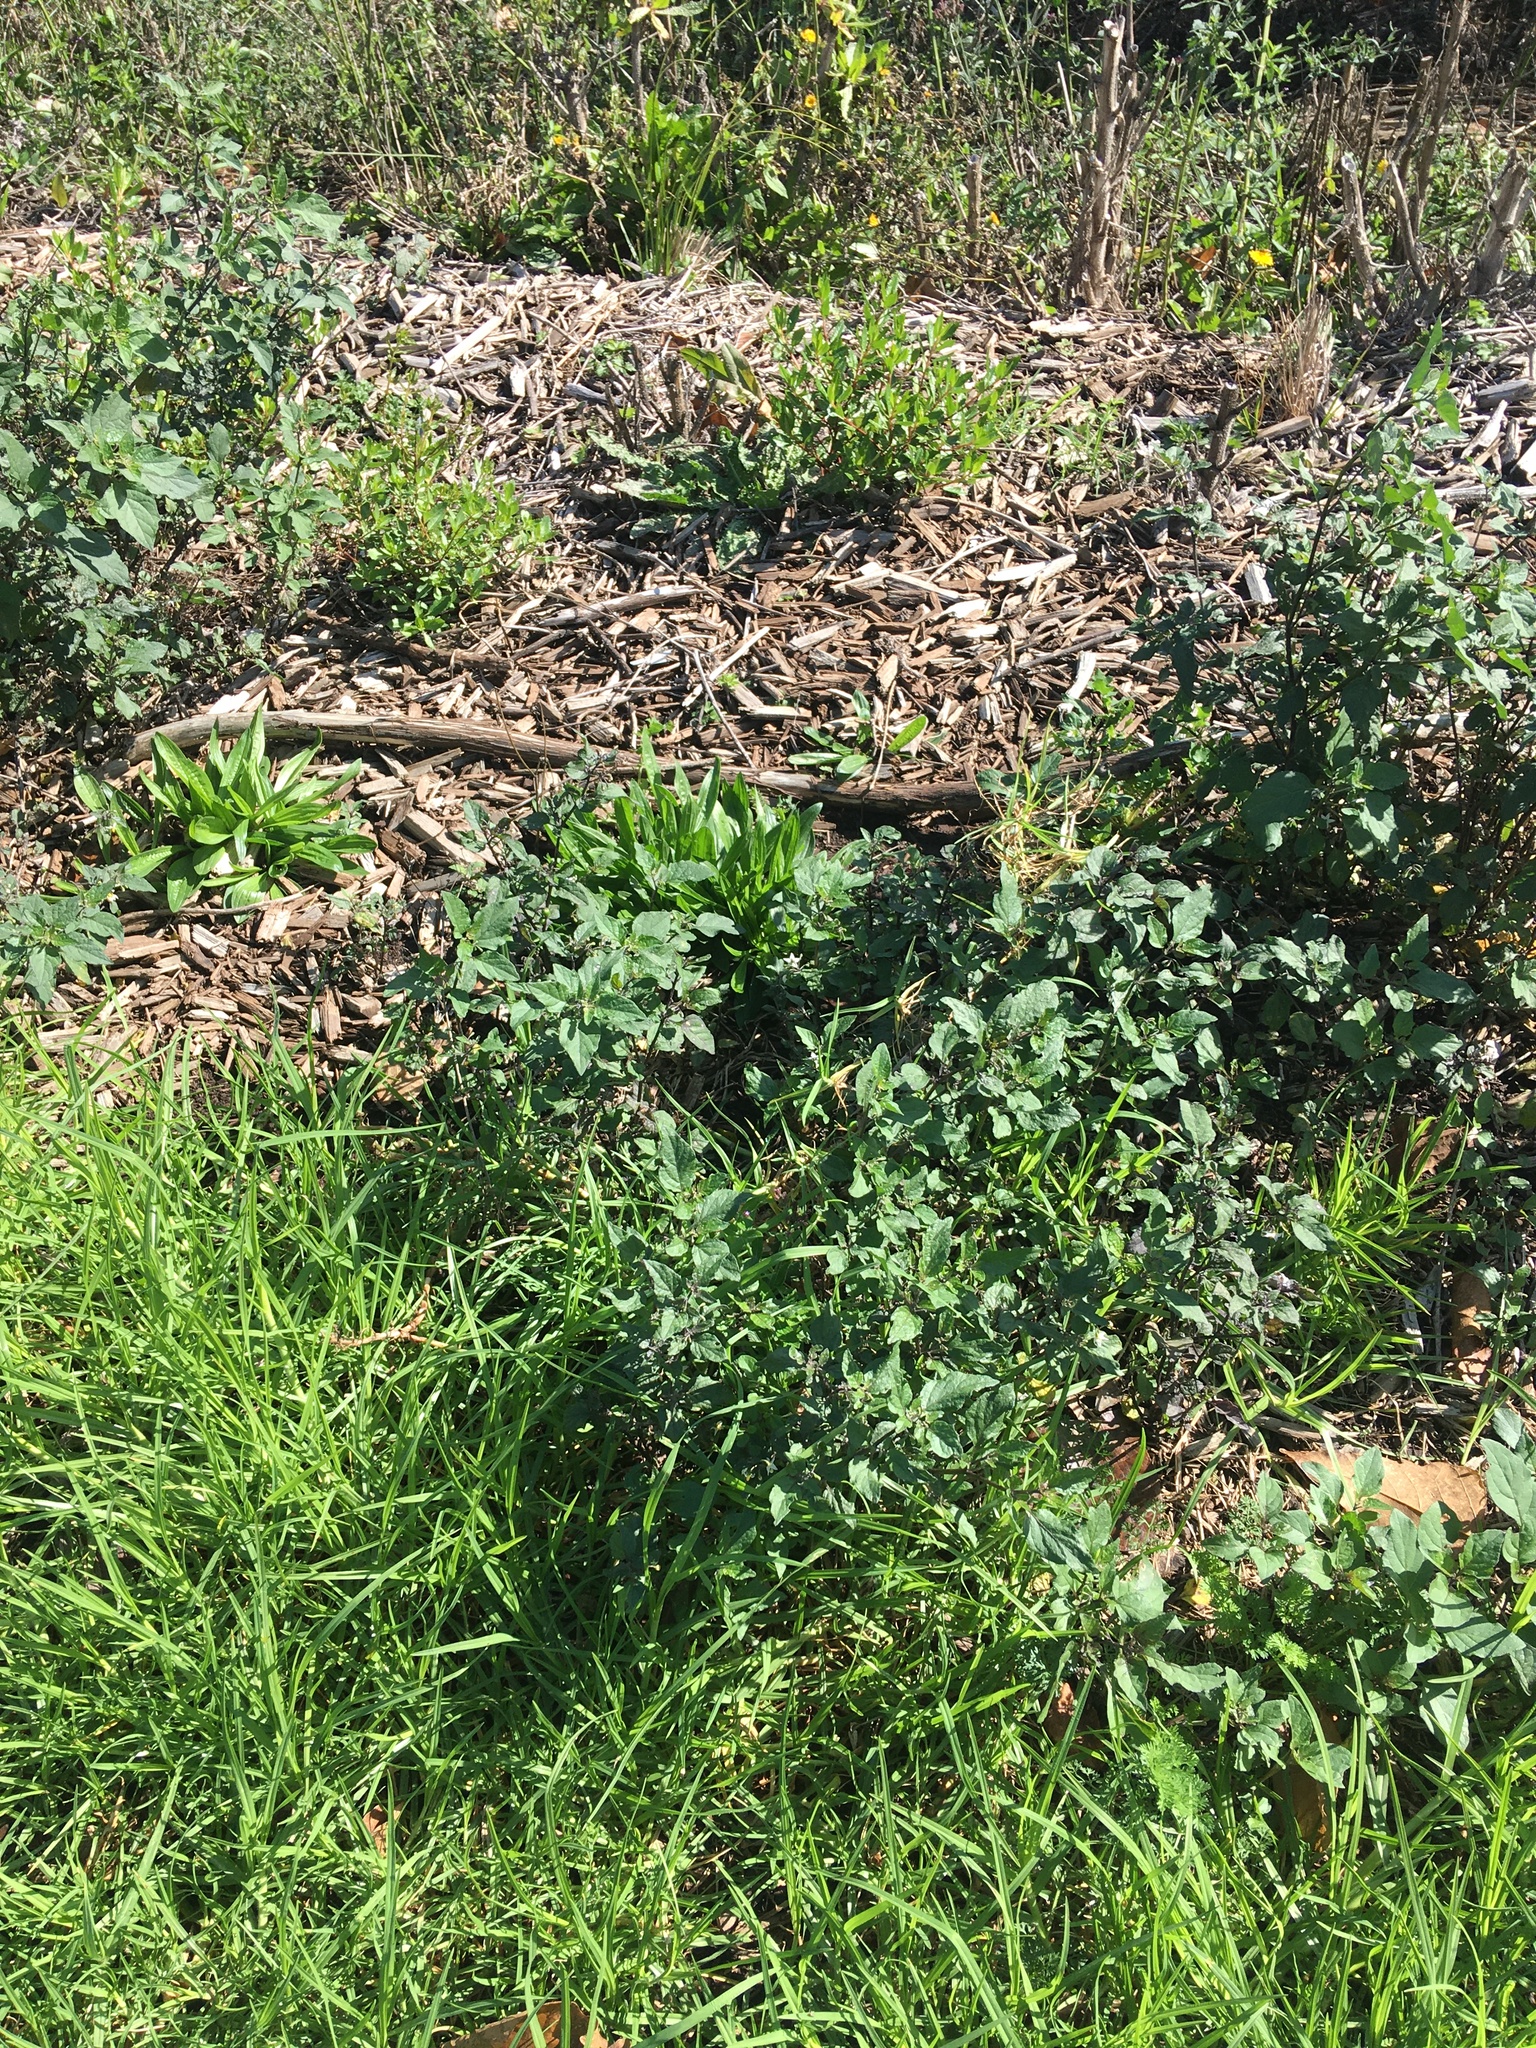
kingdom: Plantae
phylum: Tracheophyta
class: Magnoliopsida
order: Saxifragales
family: Haloragaceae
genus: Haloragis
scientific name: Haloragis erecta
